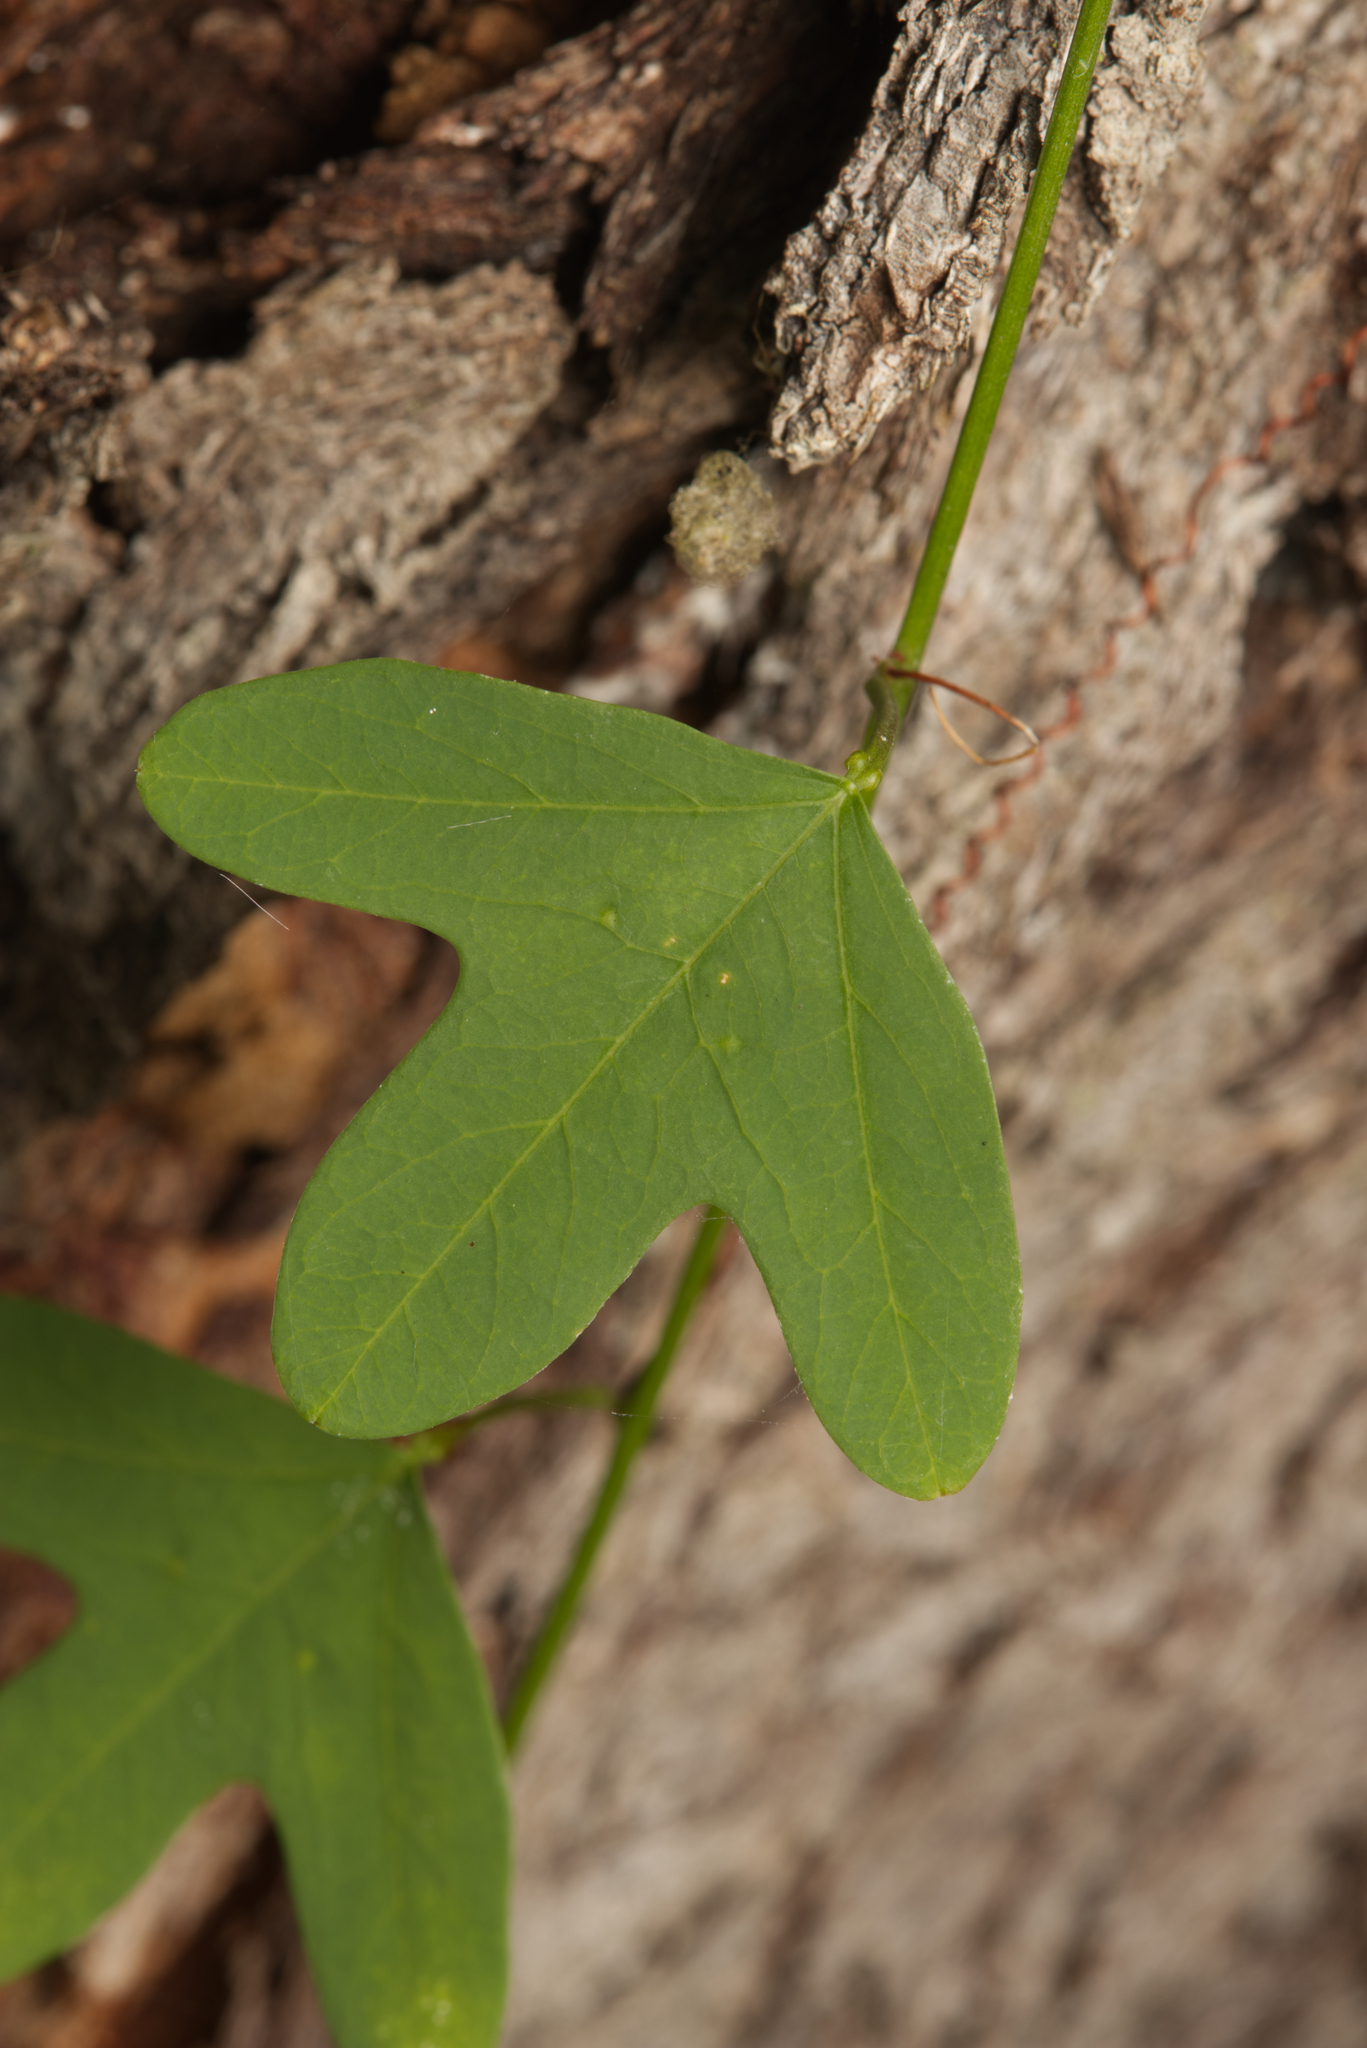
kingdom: Plantae
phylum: Tracheophyta
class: Magnoliopsida
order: Malpighiales
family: Passifloraceae
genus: Passiflora
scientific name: Passiflora aurantia
